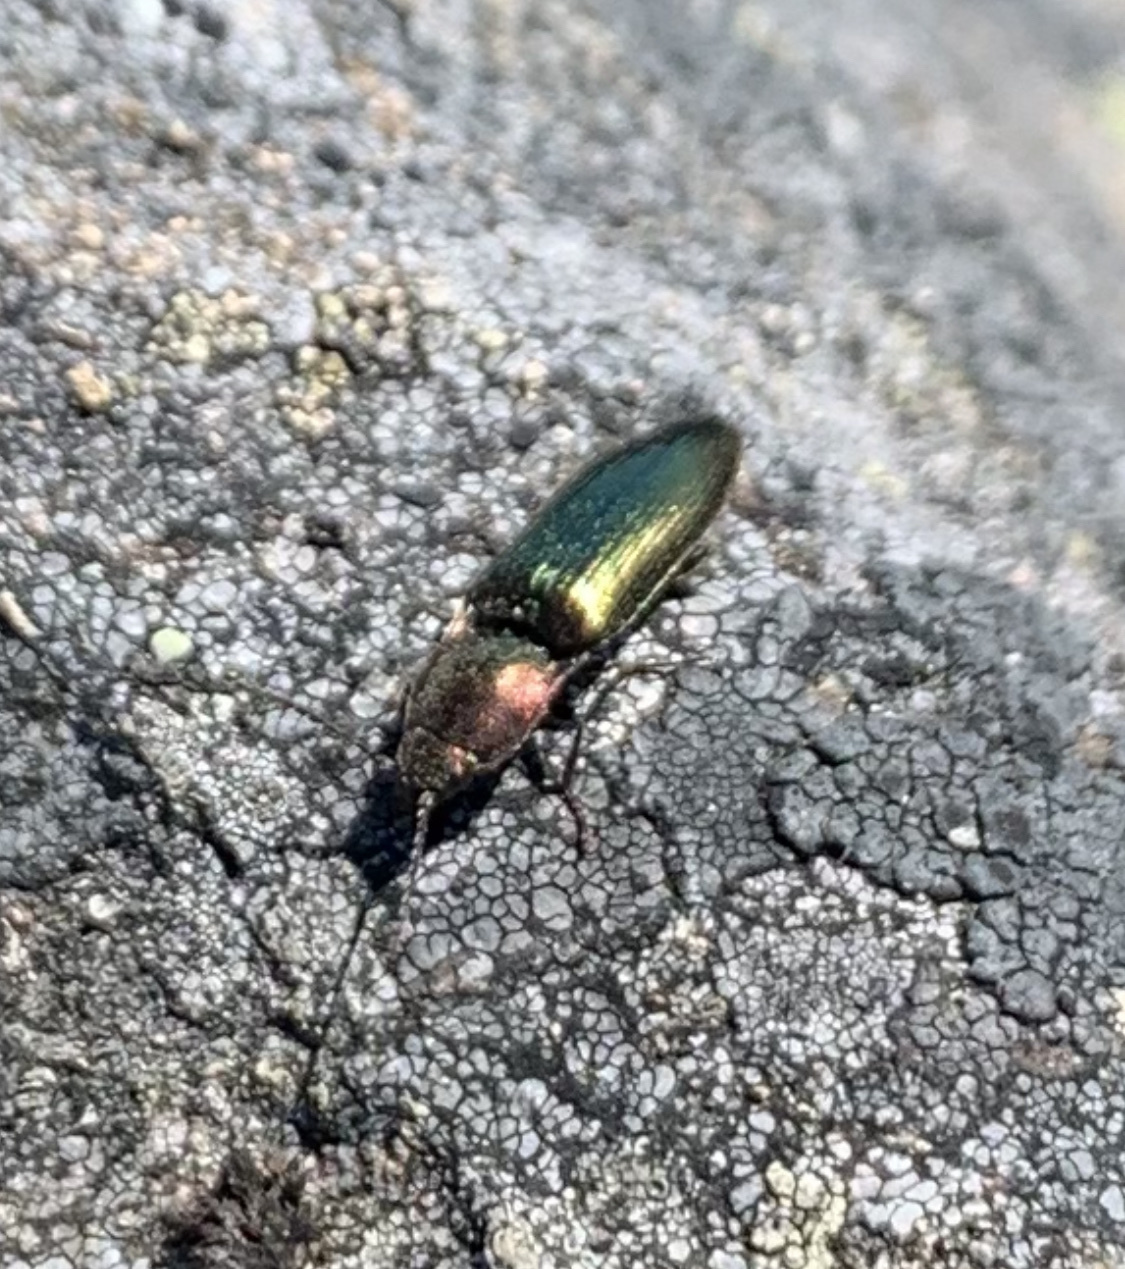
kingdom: Animalia
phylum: Arthropoda
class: Insecta
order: Coleoptera
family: Elateridae
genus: Nitidolimonius
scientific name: Nitidolimonius resplendens
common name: Resplendent click beetle
